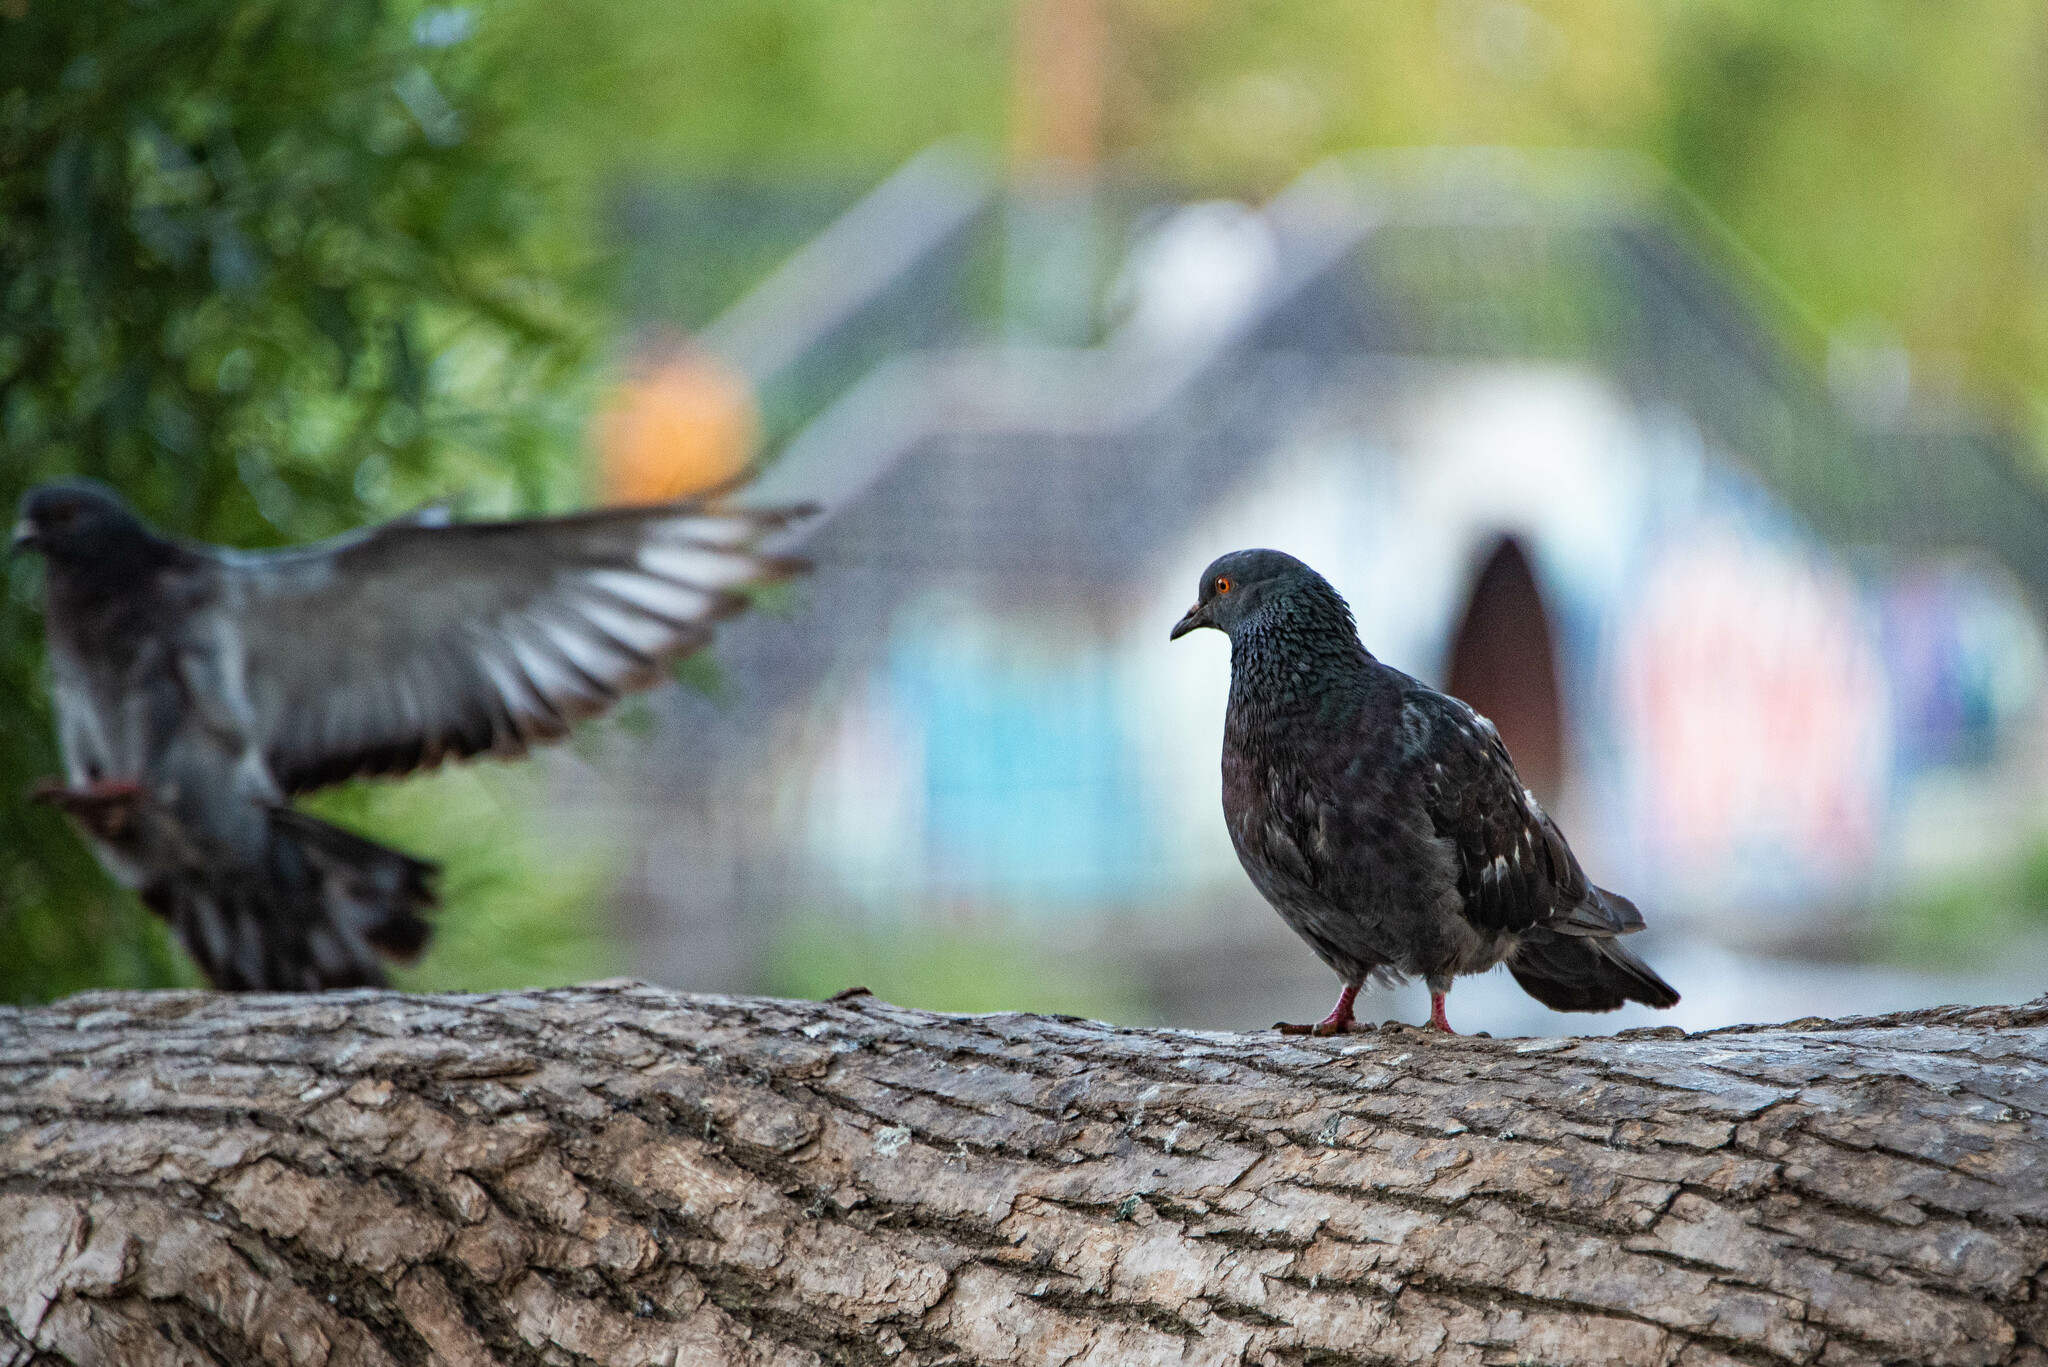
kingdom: Animalia
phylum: Chordata
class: Aves
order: Columbiformes
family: Columbidae
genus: Columba
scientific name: Columba livia
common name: Rock pigeon
